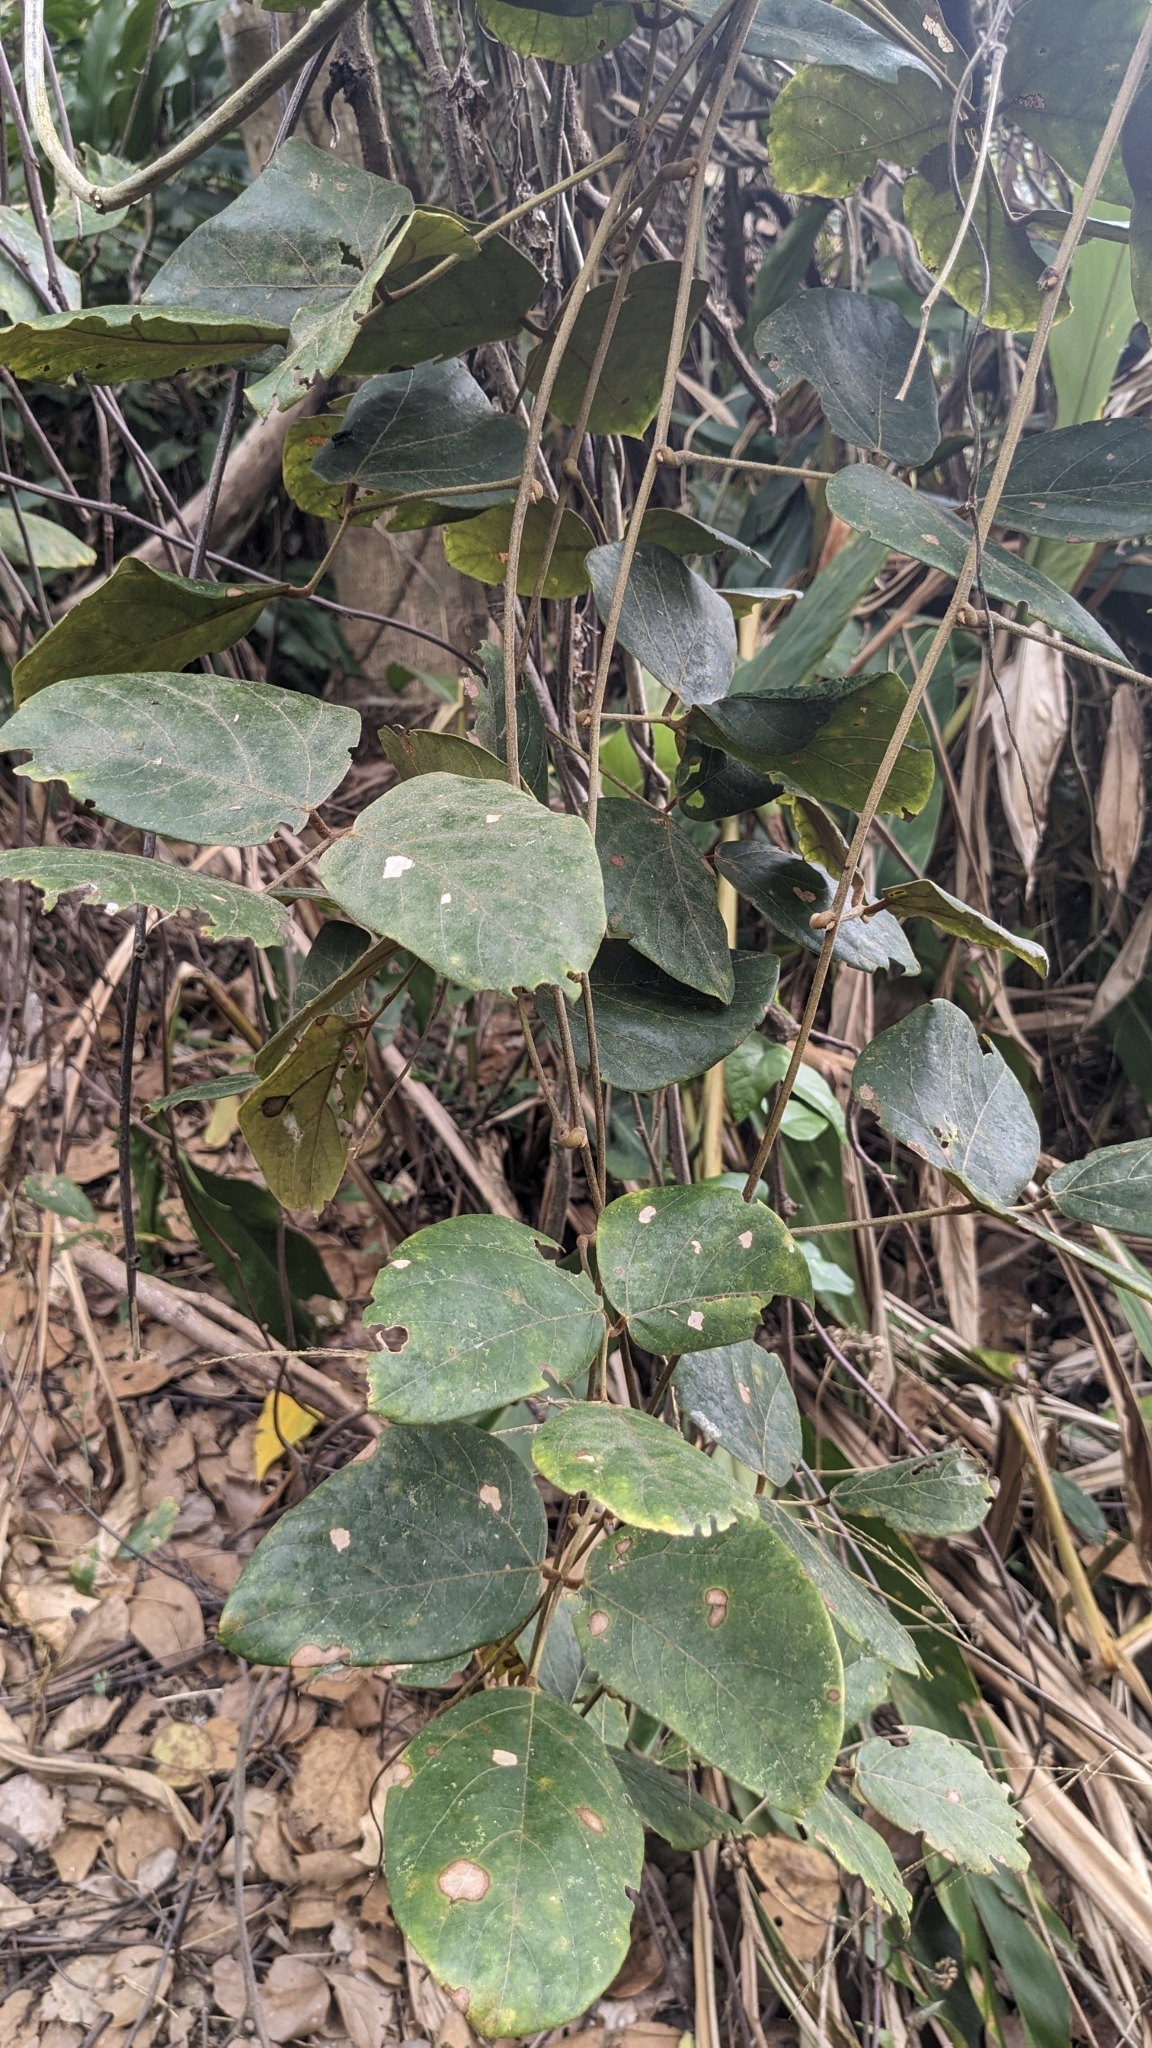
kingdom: Plantae
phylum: Tracheophyta
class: Magnoliopsida
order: Fabales
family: Fabaceae
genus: Mucuna
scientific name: Mucuna macrocarpa
